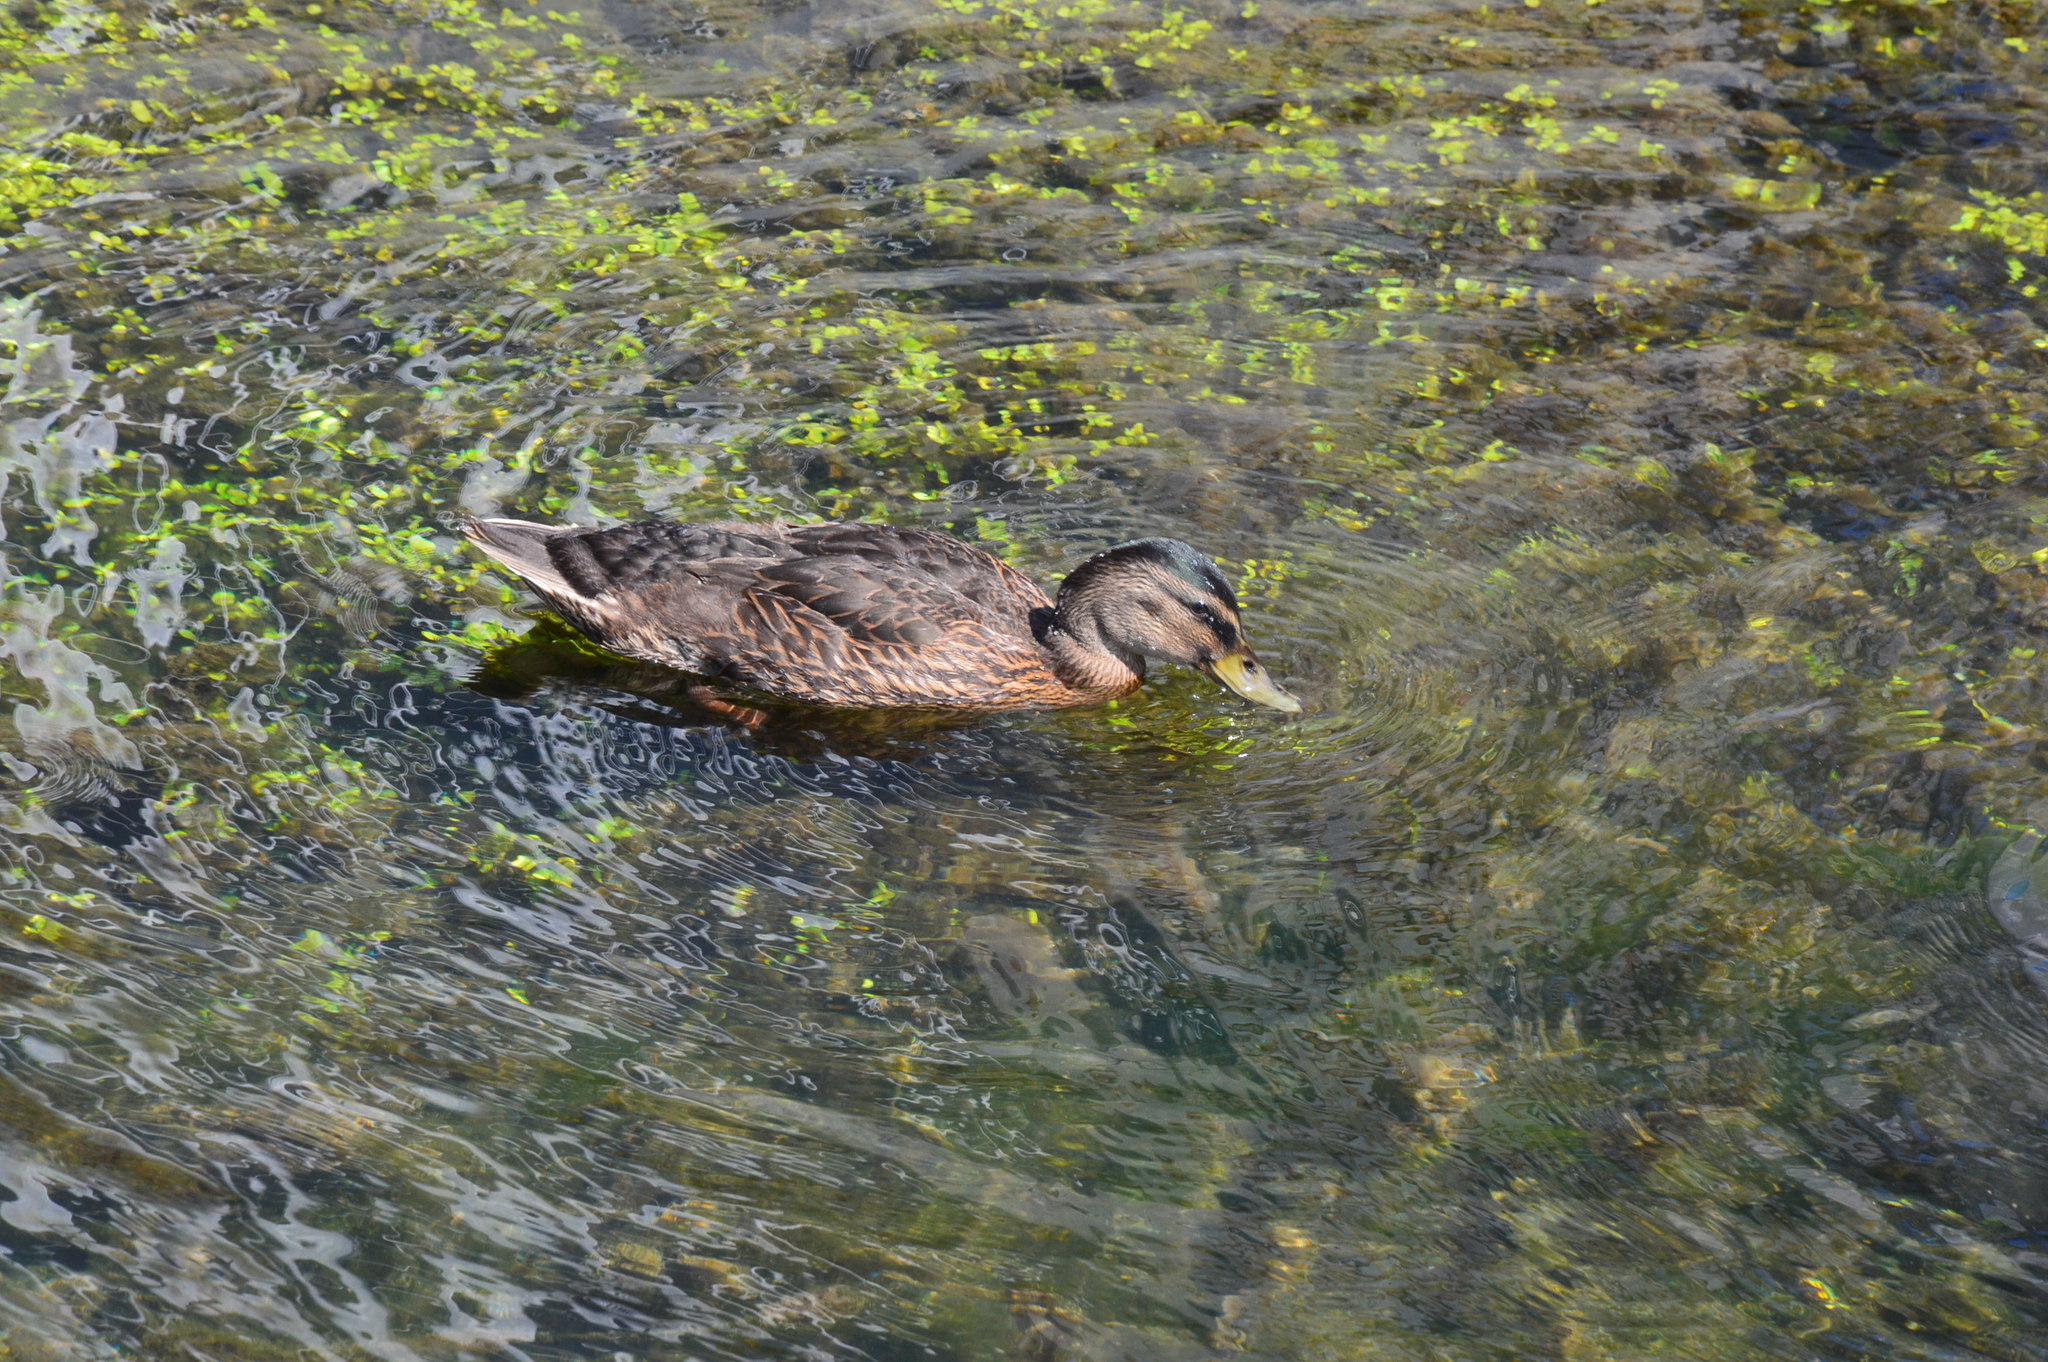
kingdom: Animalia
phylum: Chordata
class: Aves
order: Anseriformes
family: Anatidae
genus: Anas
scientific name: Anas platyrhynchos
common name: Mallard
